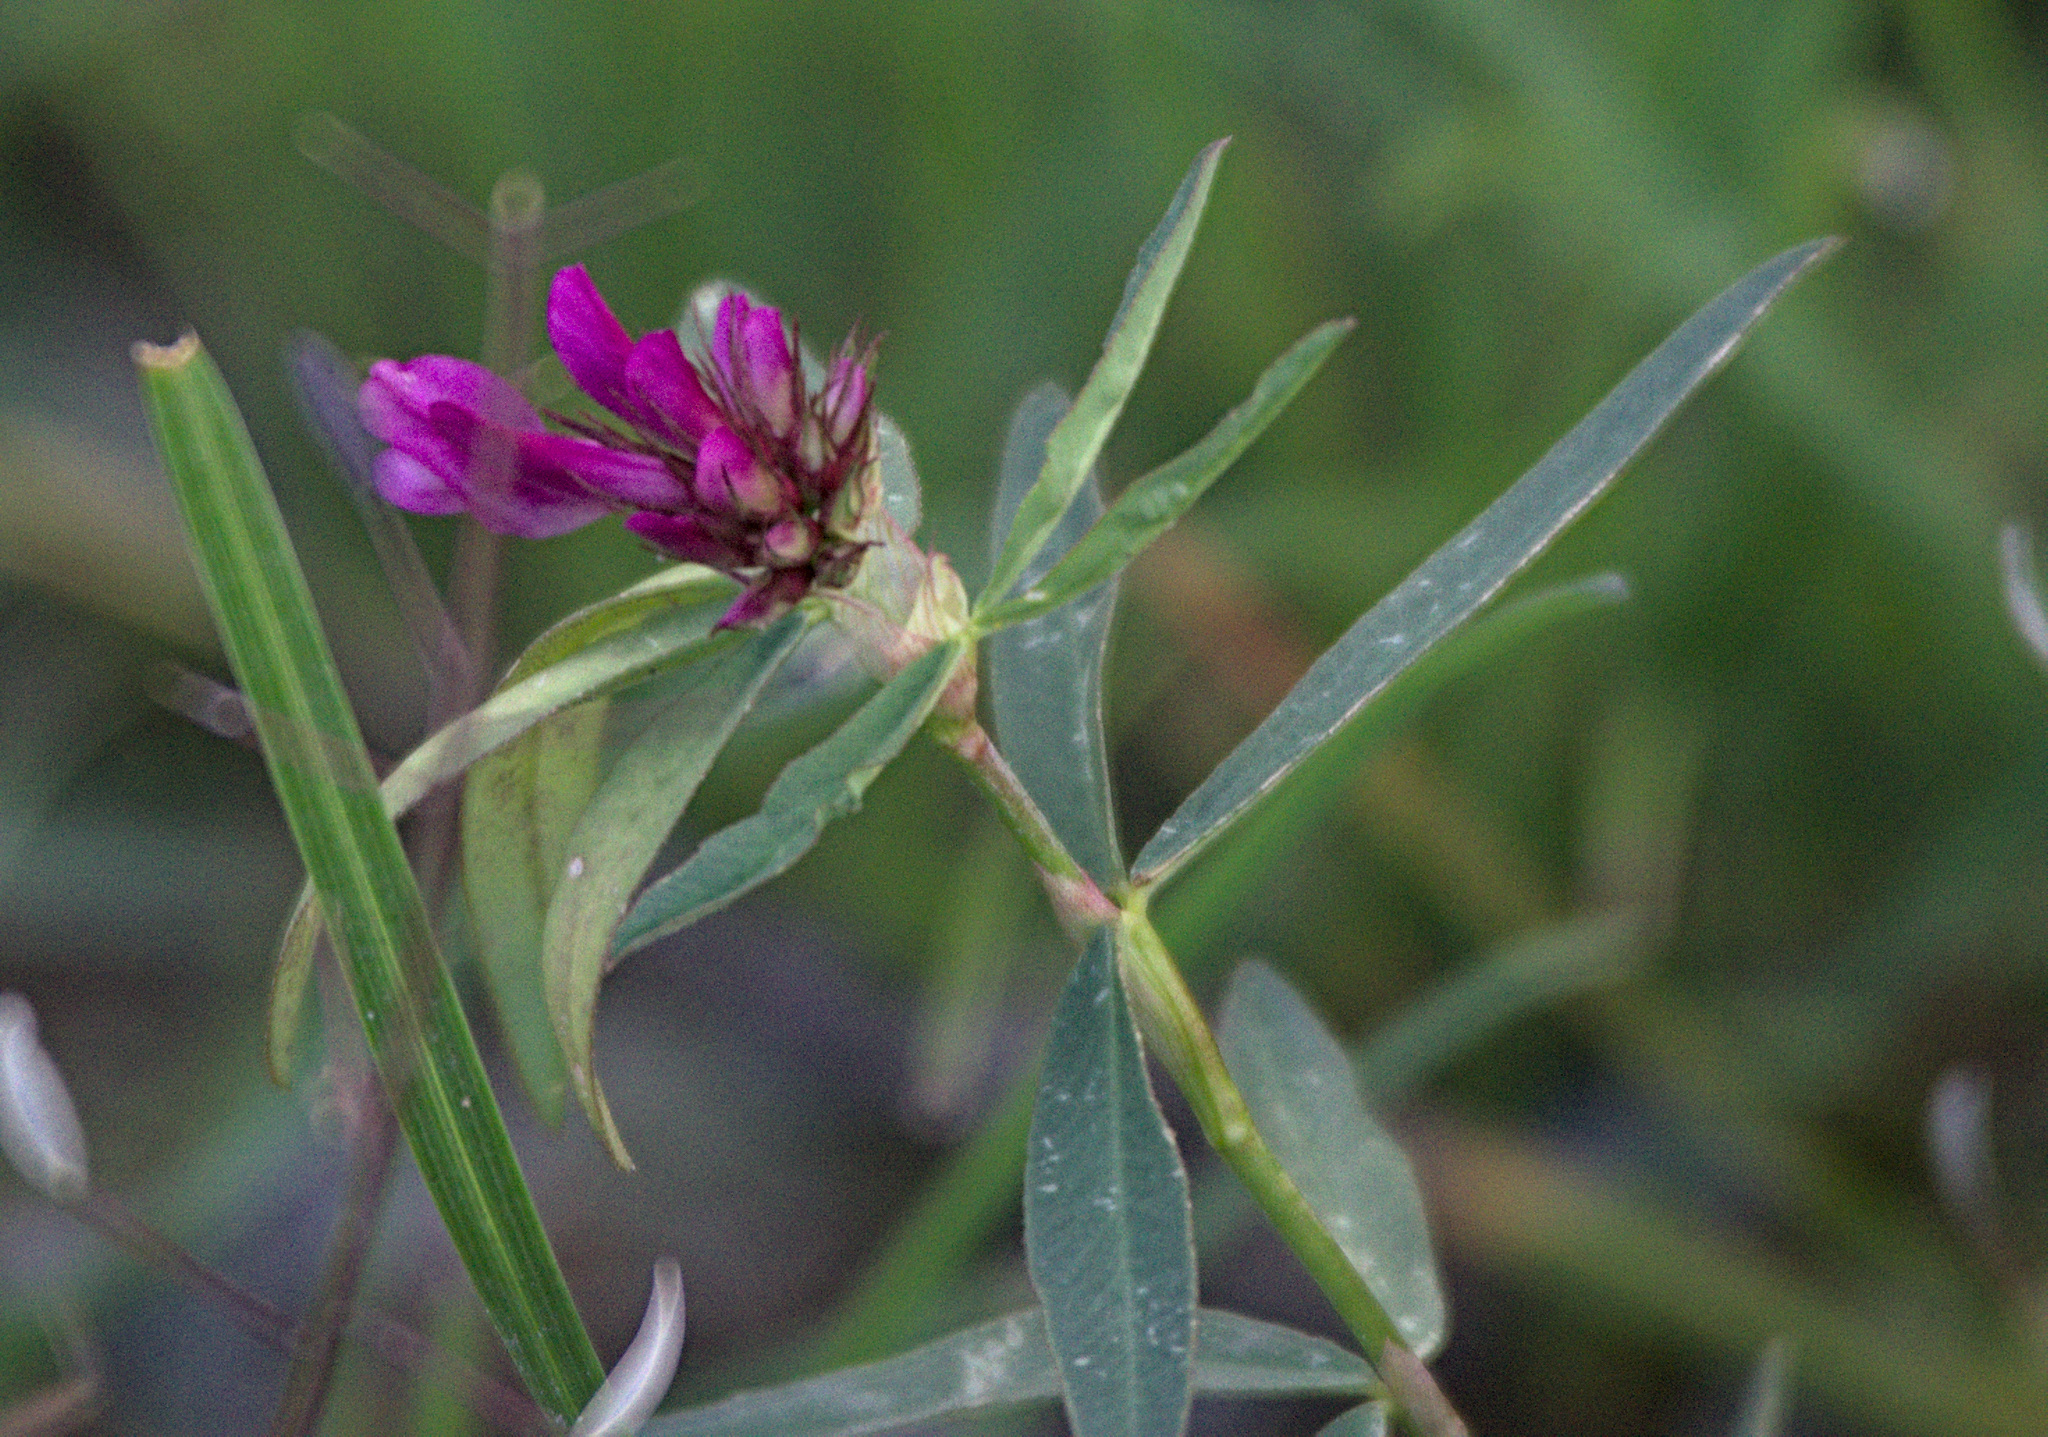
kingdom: Plantae
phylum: Tracheophyta
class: Magnoliopsida
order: Fabales
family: Fabaceae
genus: Trifolium
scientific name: Trifolium lupinaster
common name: Lupine clover
